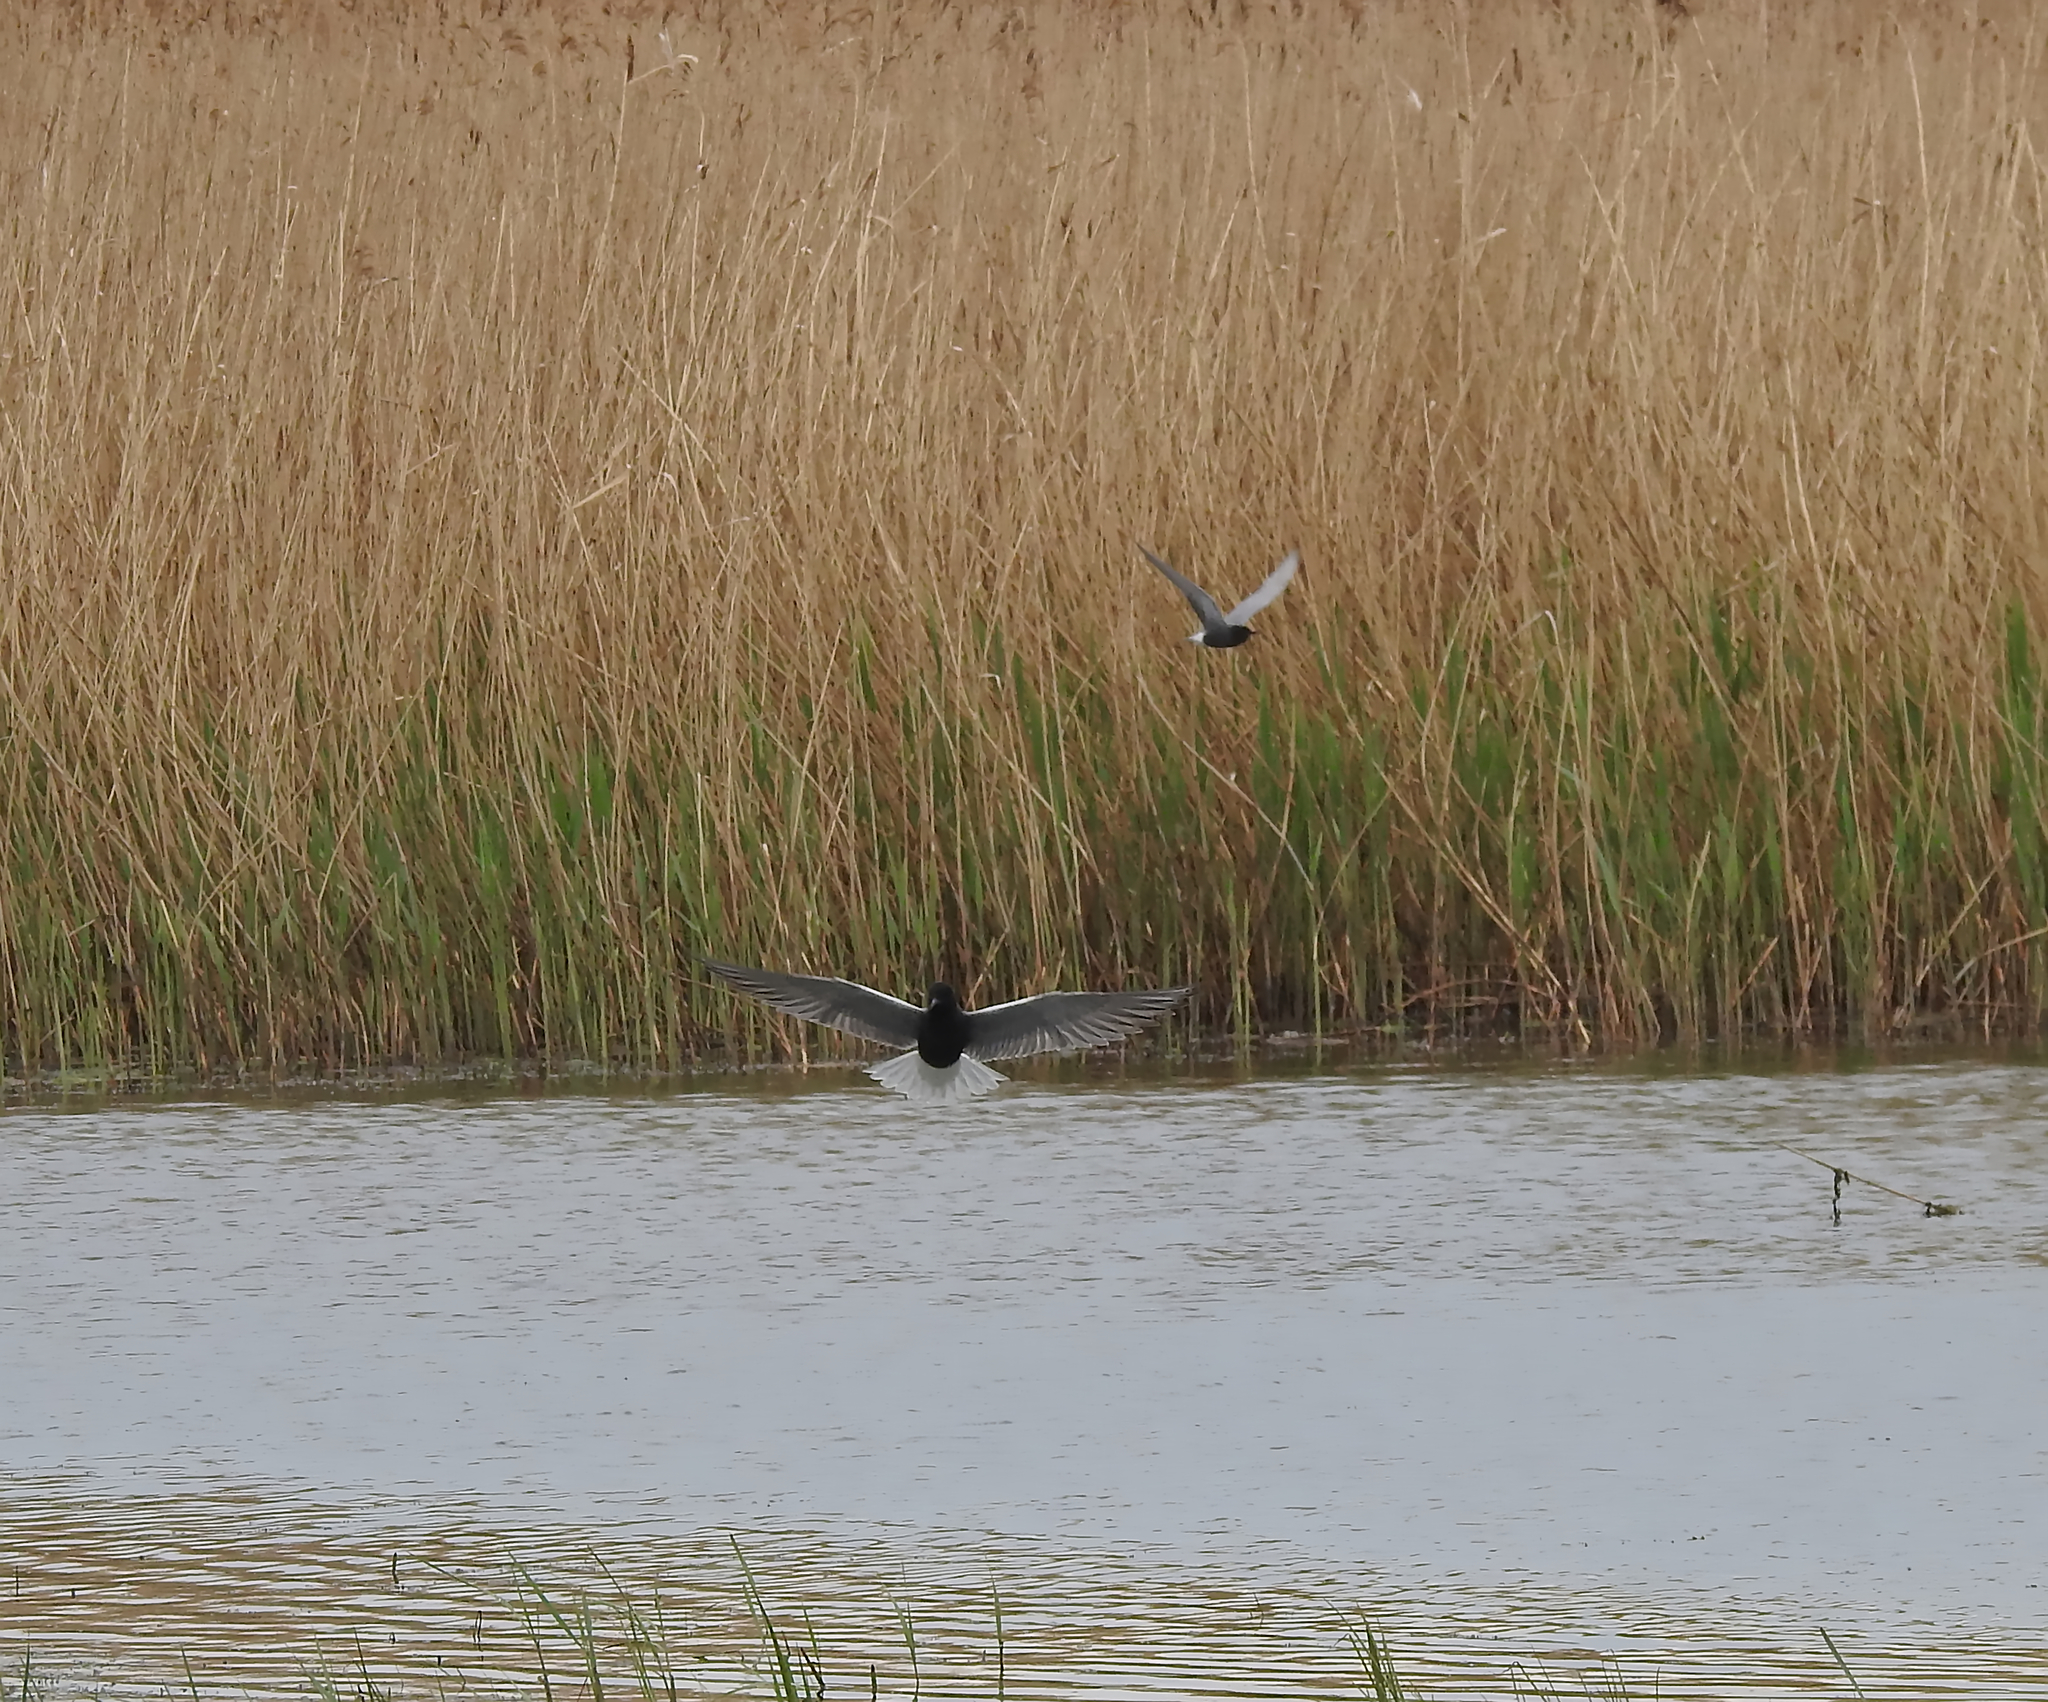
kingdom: Animalia
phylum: Chordata
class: Aves
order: Charadriiformes
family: Laridae
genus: Chlidonias
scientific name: Chlidonias niger
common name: Black tern
